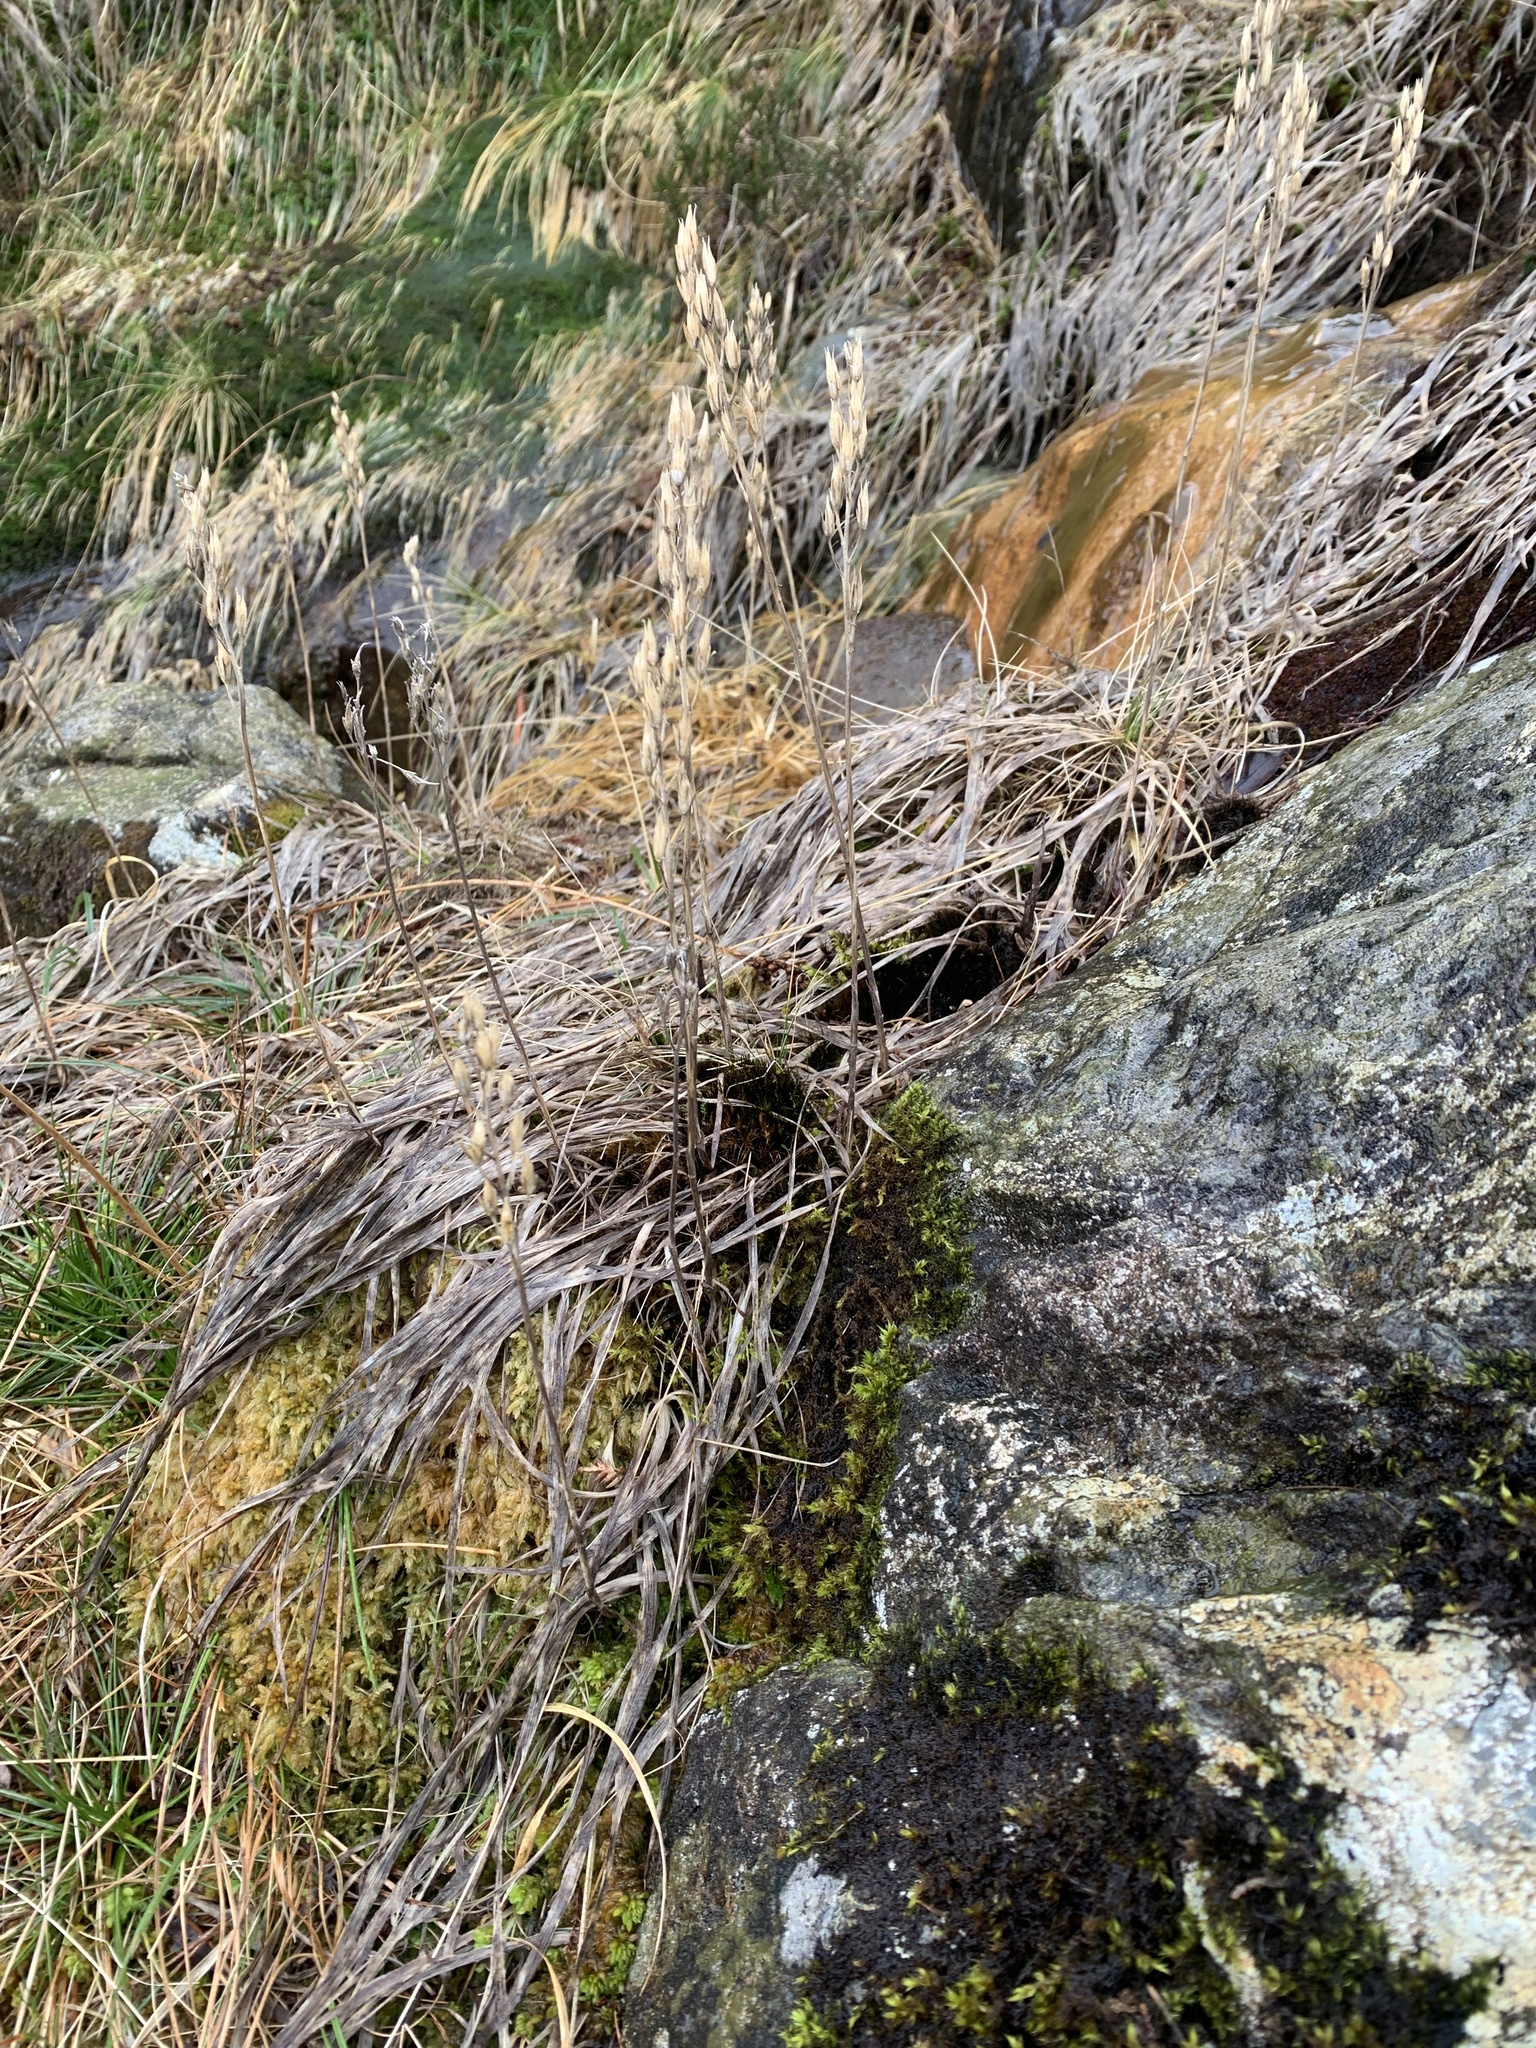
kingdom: Plantae
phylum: Tracheophyta
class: Liliopsida
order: Dioscoreales
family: Nartheciaceae
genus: Narthecium
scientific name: Narthecium ossifragum
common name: Bog asphodel
